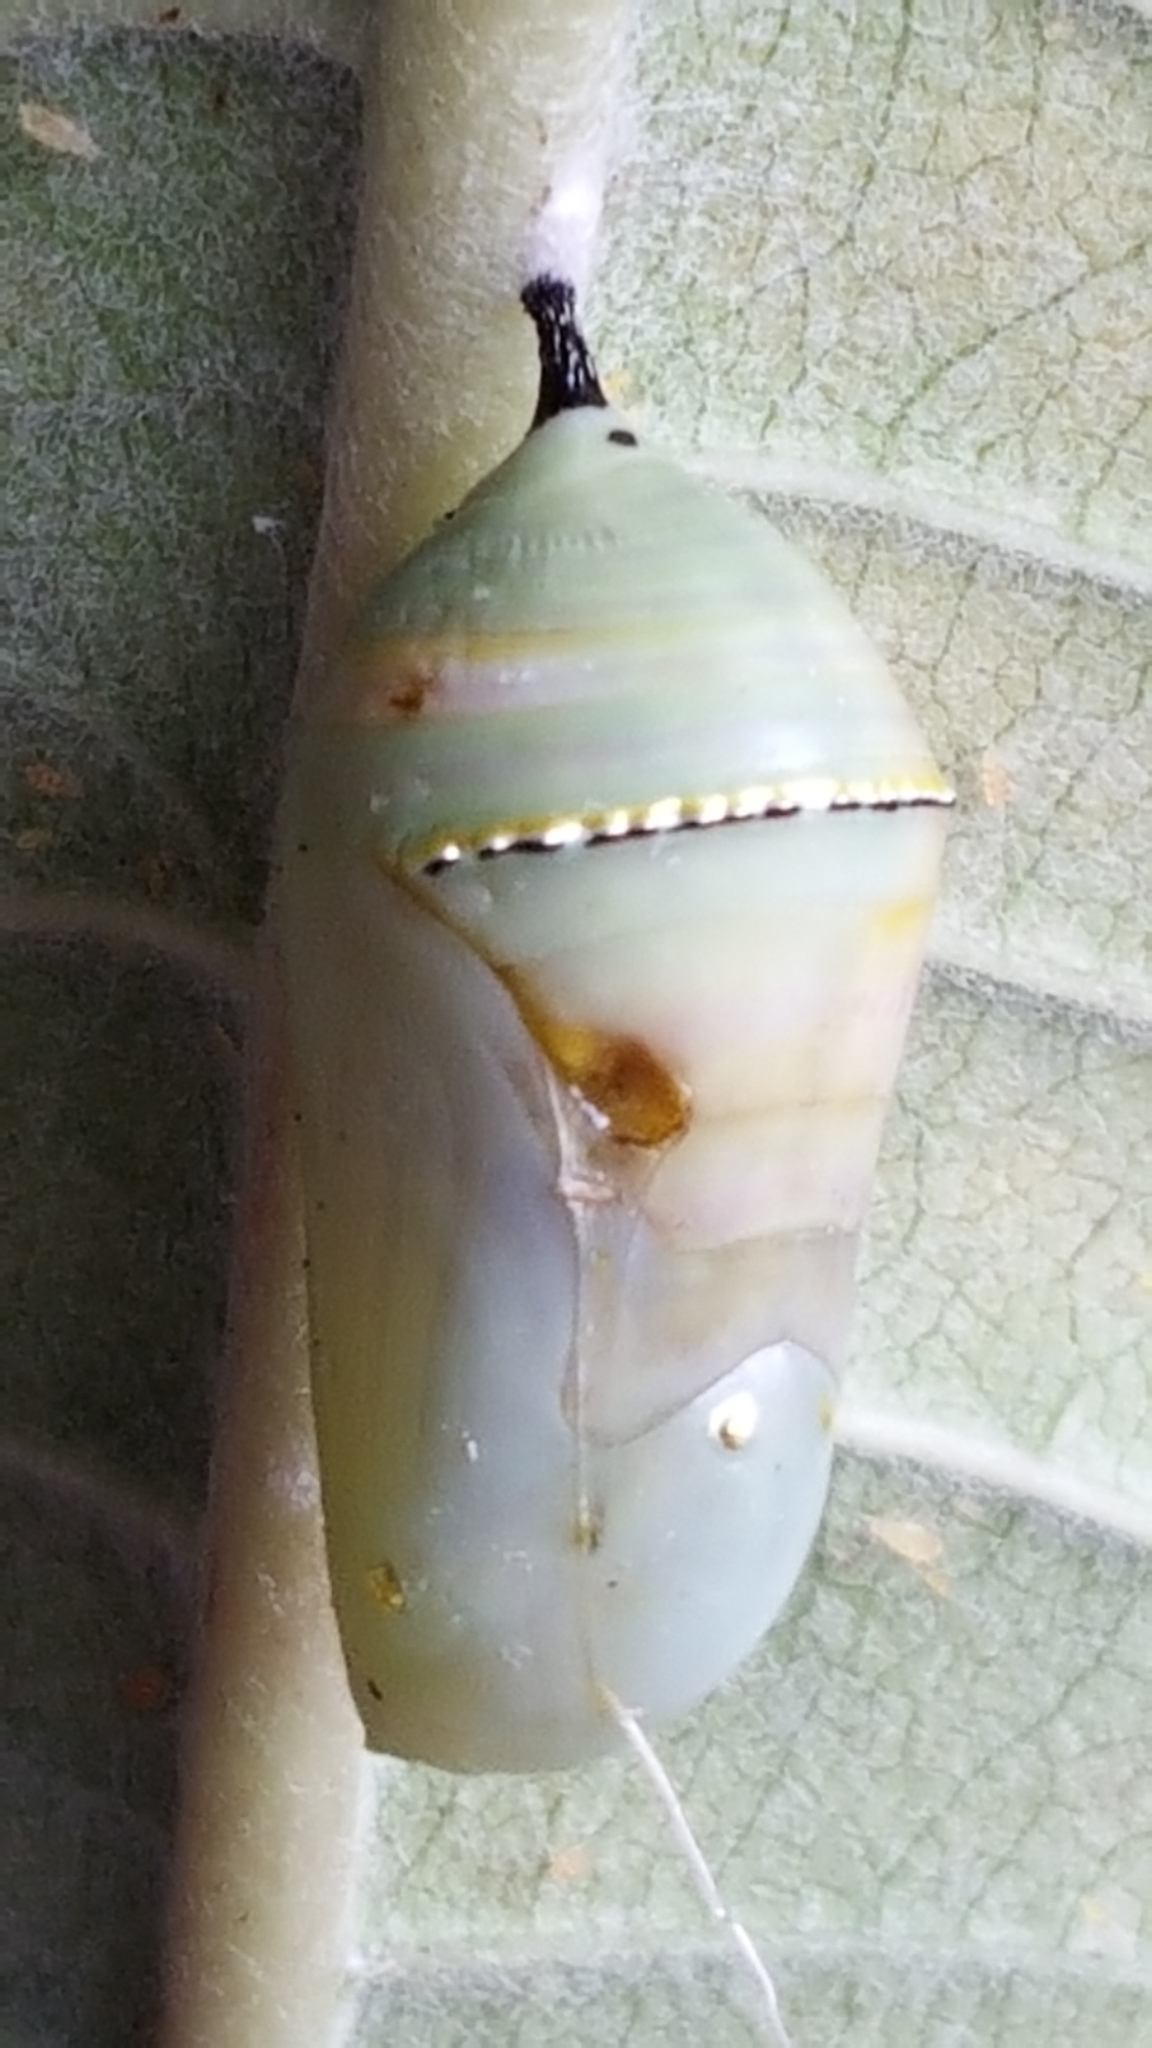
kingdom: Animalia
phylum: Arthropoda
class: Insecta
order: Lepidoptera
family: Nymphalidae
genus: Danaus
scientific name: Danaus plexippus
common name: Monarch
